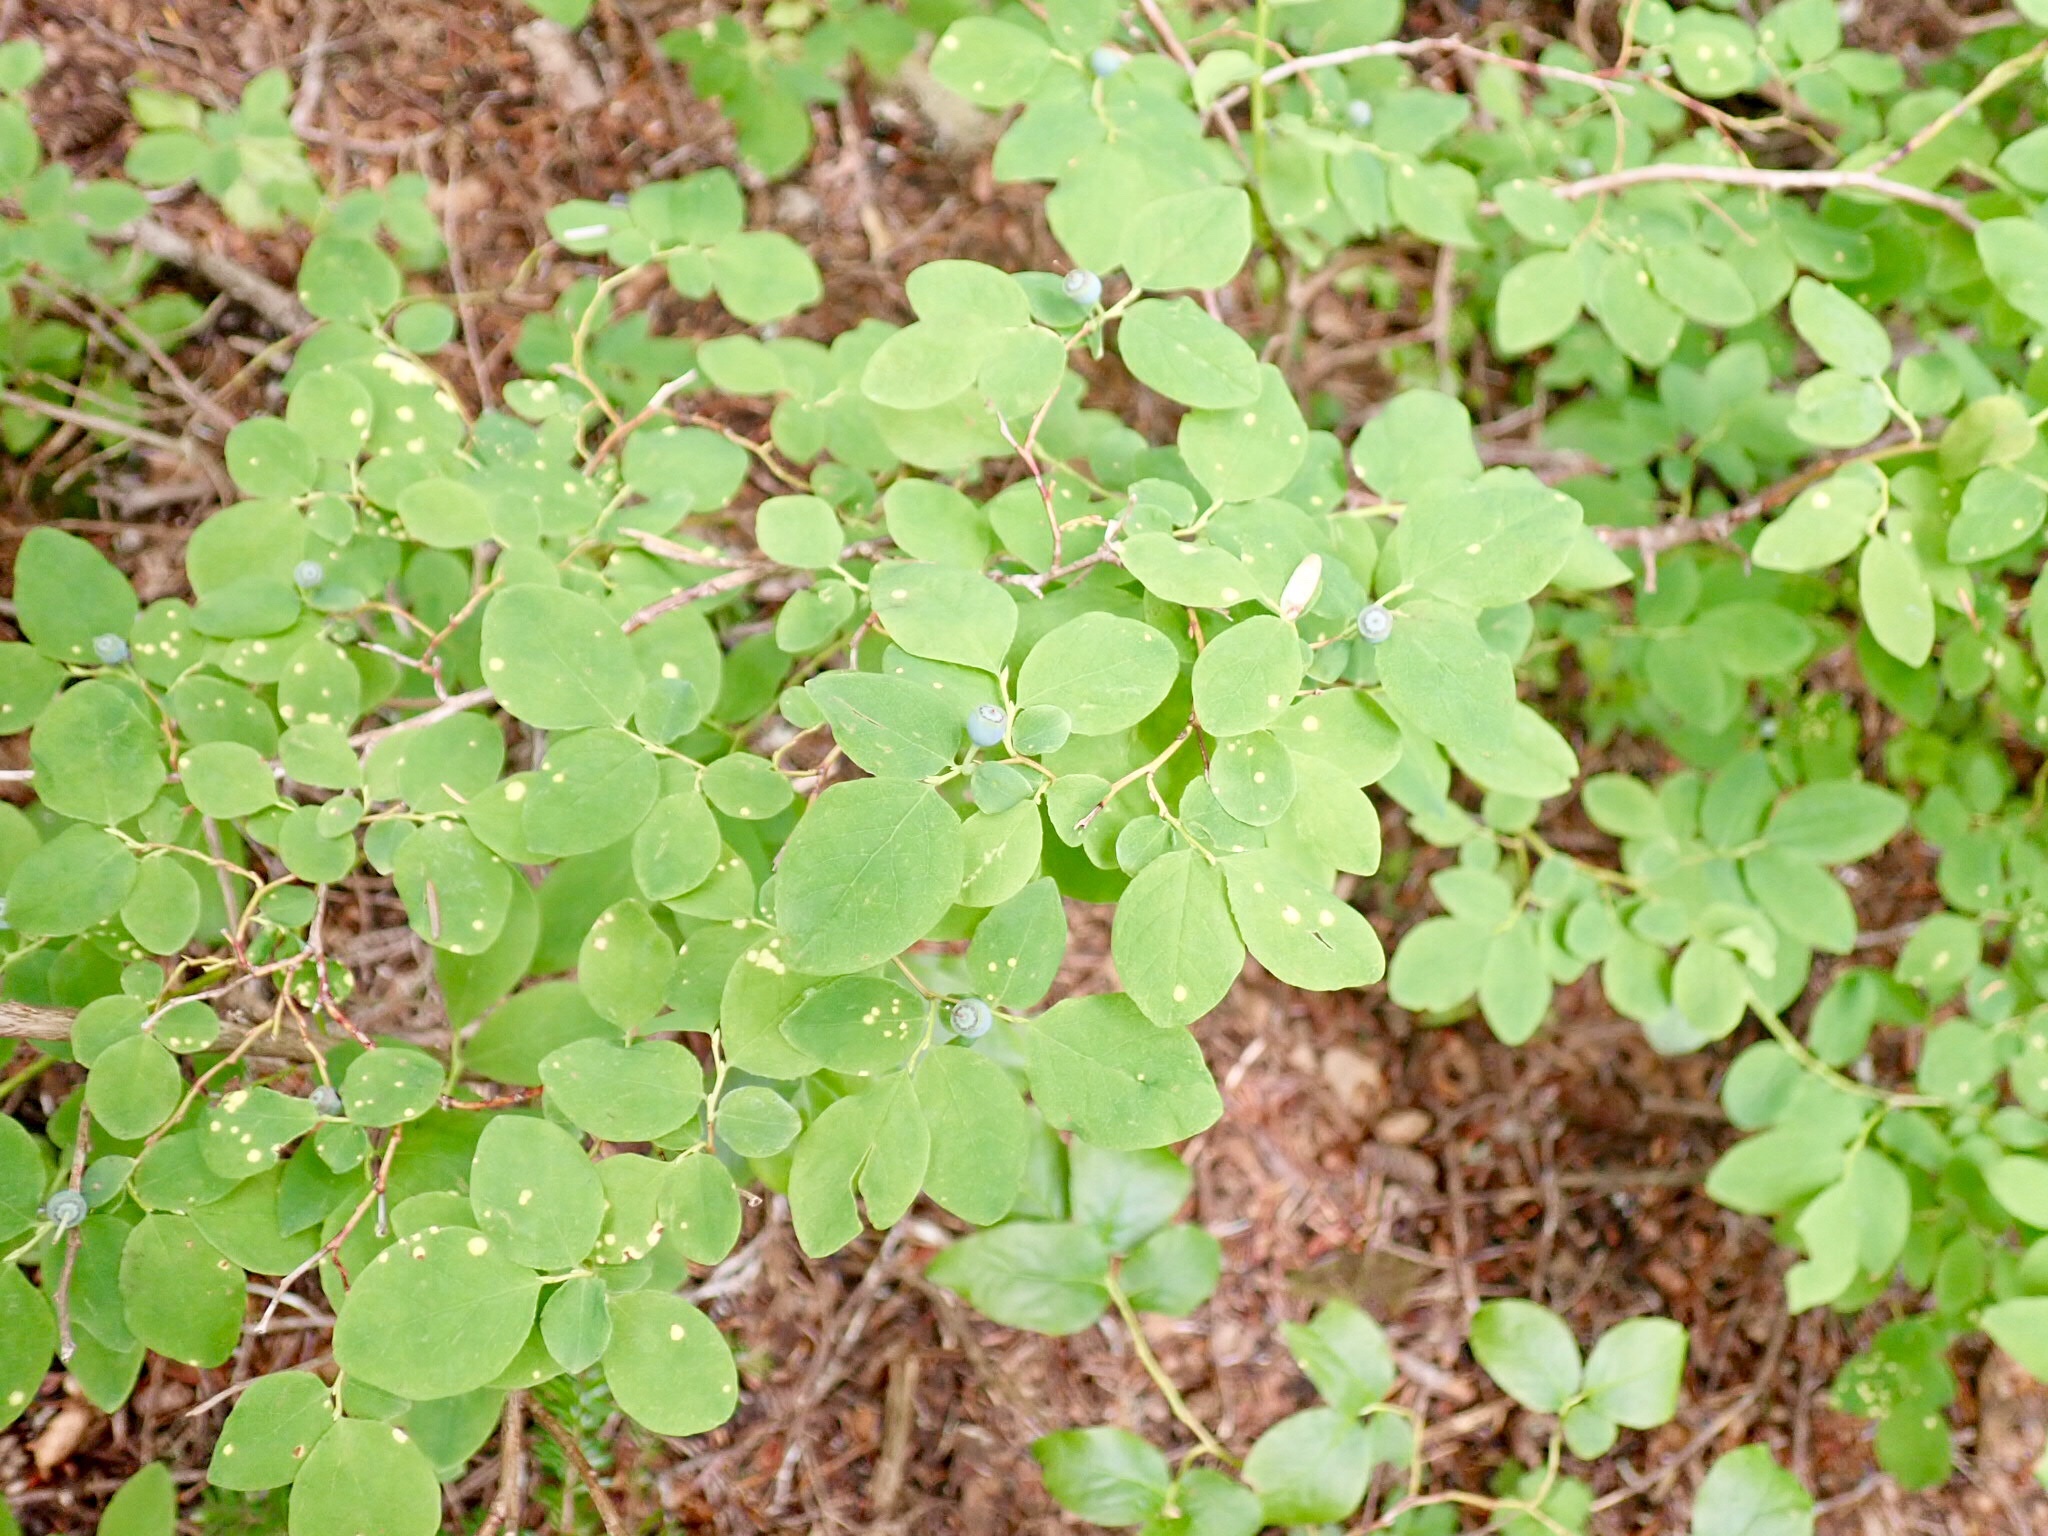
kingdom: Plantae
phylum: Tracheophyta
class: Magnoliopsida
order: Ericales
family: Ericaceae
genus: Vaccinium
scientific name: Vaccinium ovalifolium
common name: Early blueberry
